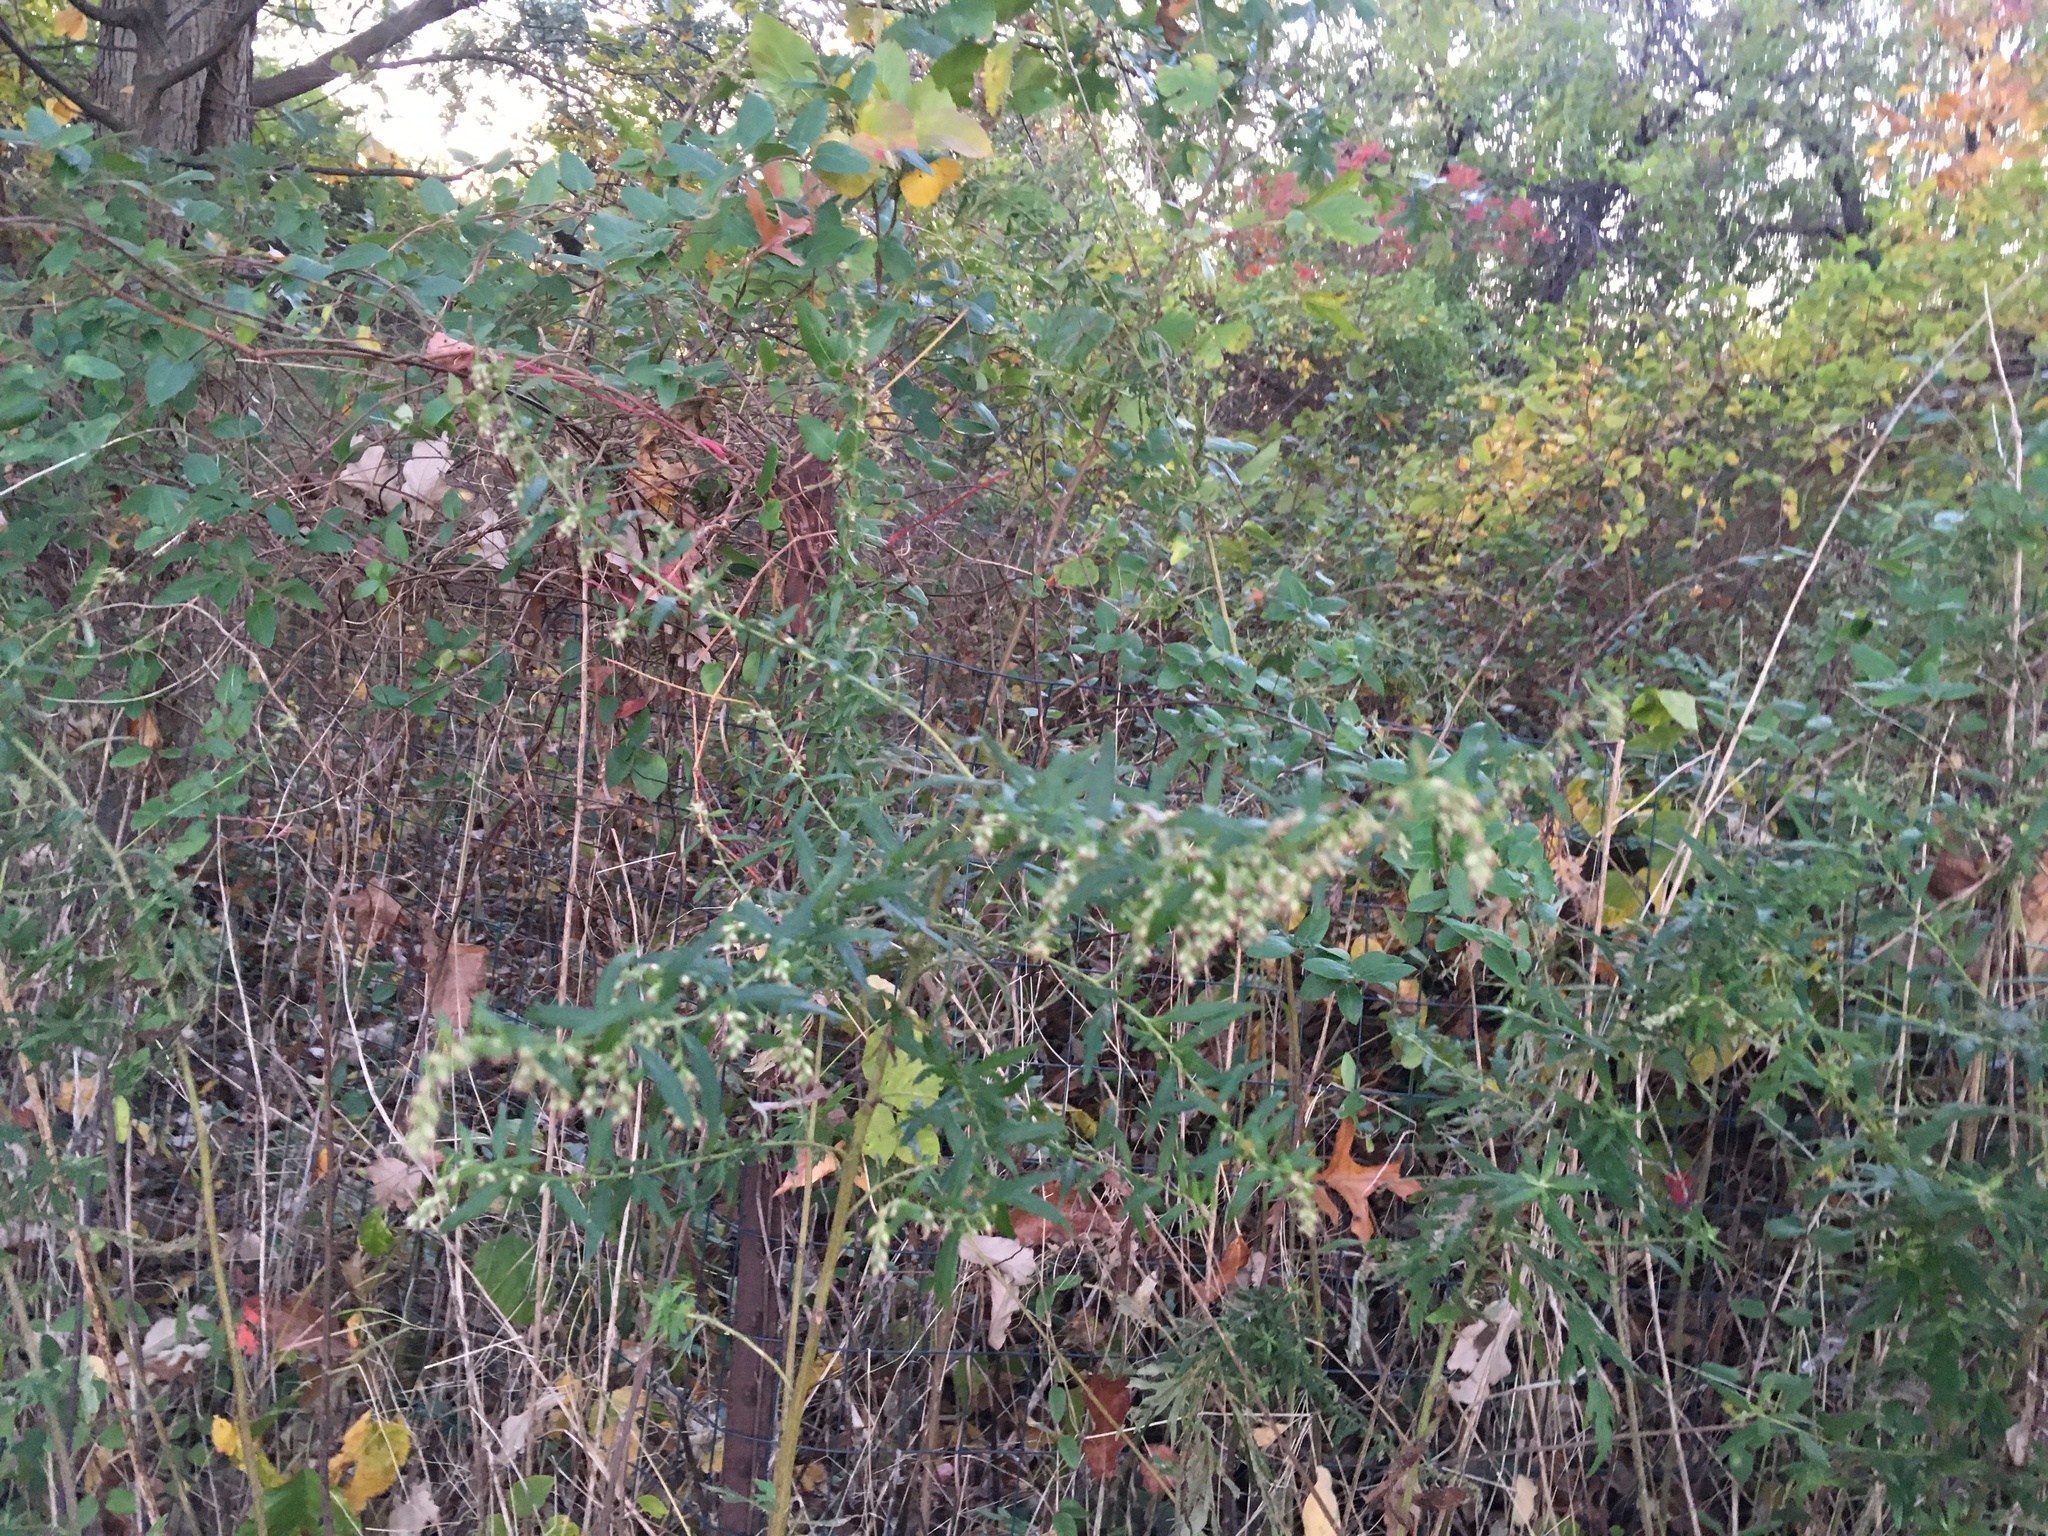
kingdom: Plantae
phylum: Tracheophyta
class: Magnoliopsida
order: Asterales
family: Asteraceae
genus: Artemisia
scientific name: Artemisia vulgaris
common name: Mugwort
